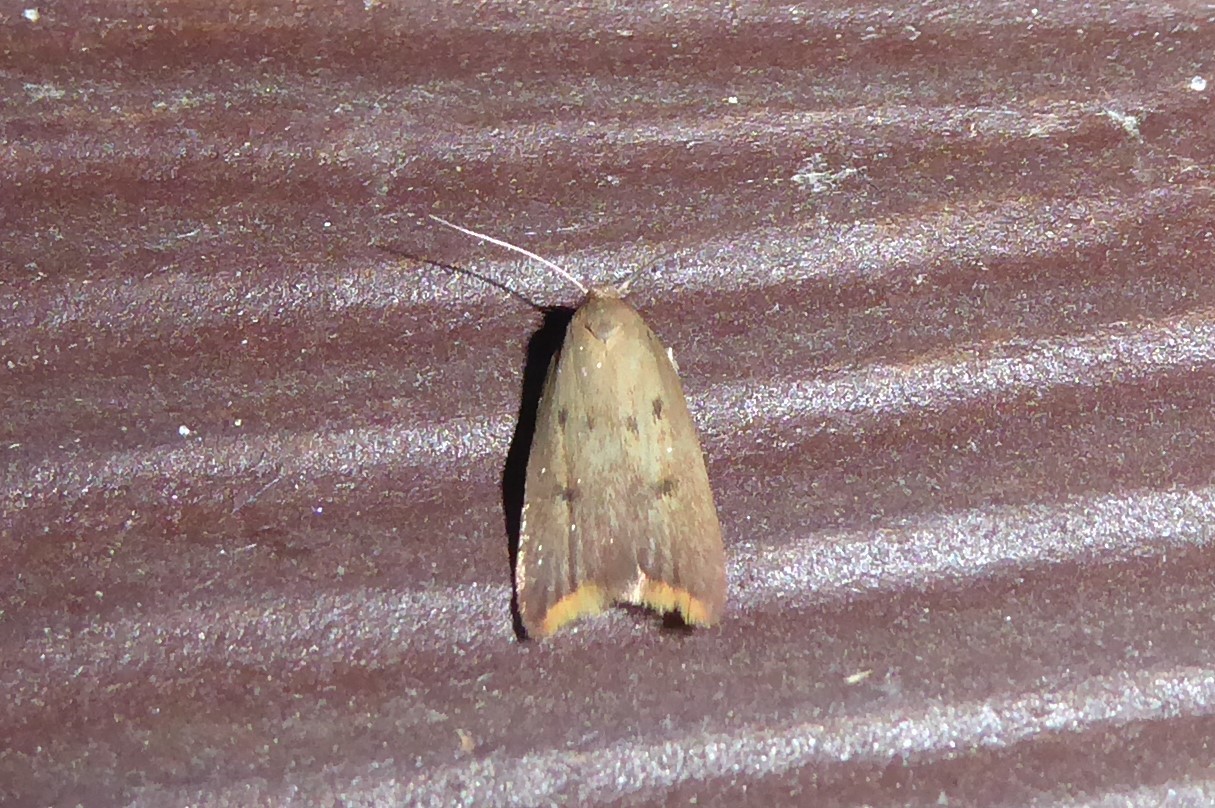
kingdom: Animalia
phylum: Arthropoda
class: Insecta
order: Lepidoptera
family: Oecophoridae
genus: Tachystola
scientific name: Tachystola acroxantha
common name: Ruddy streak
